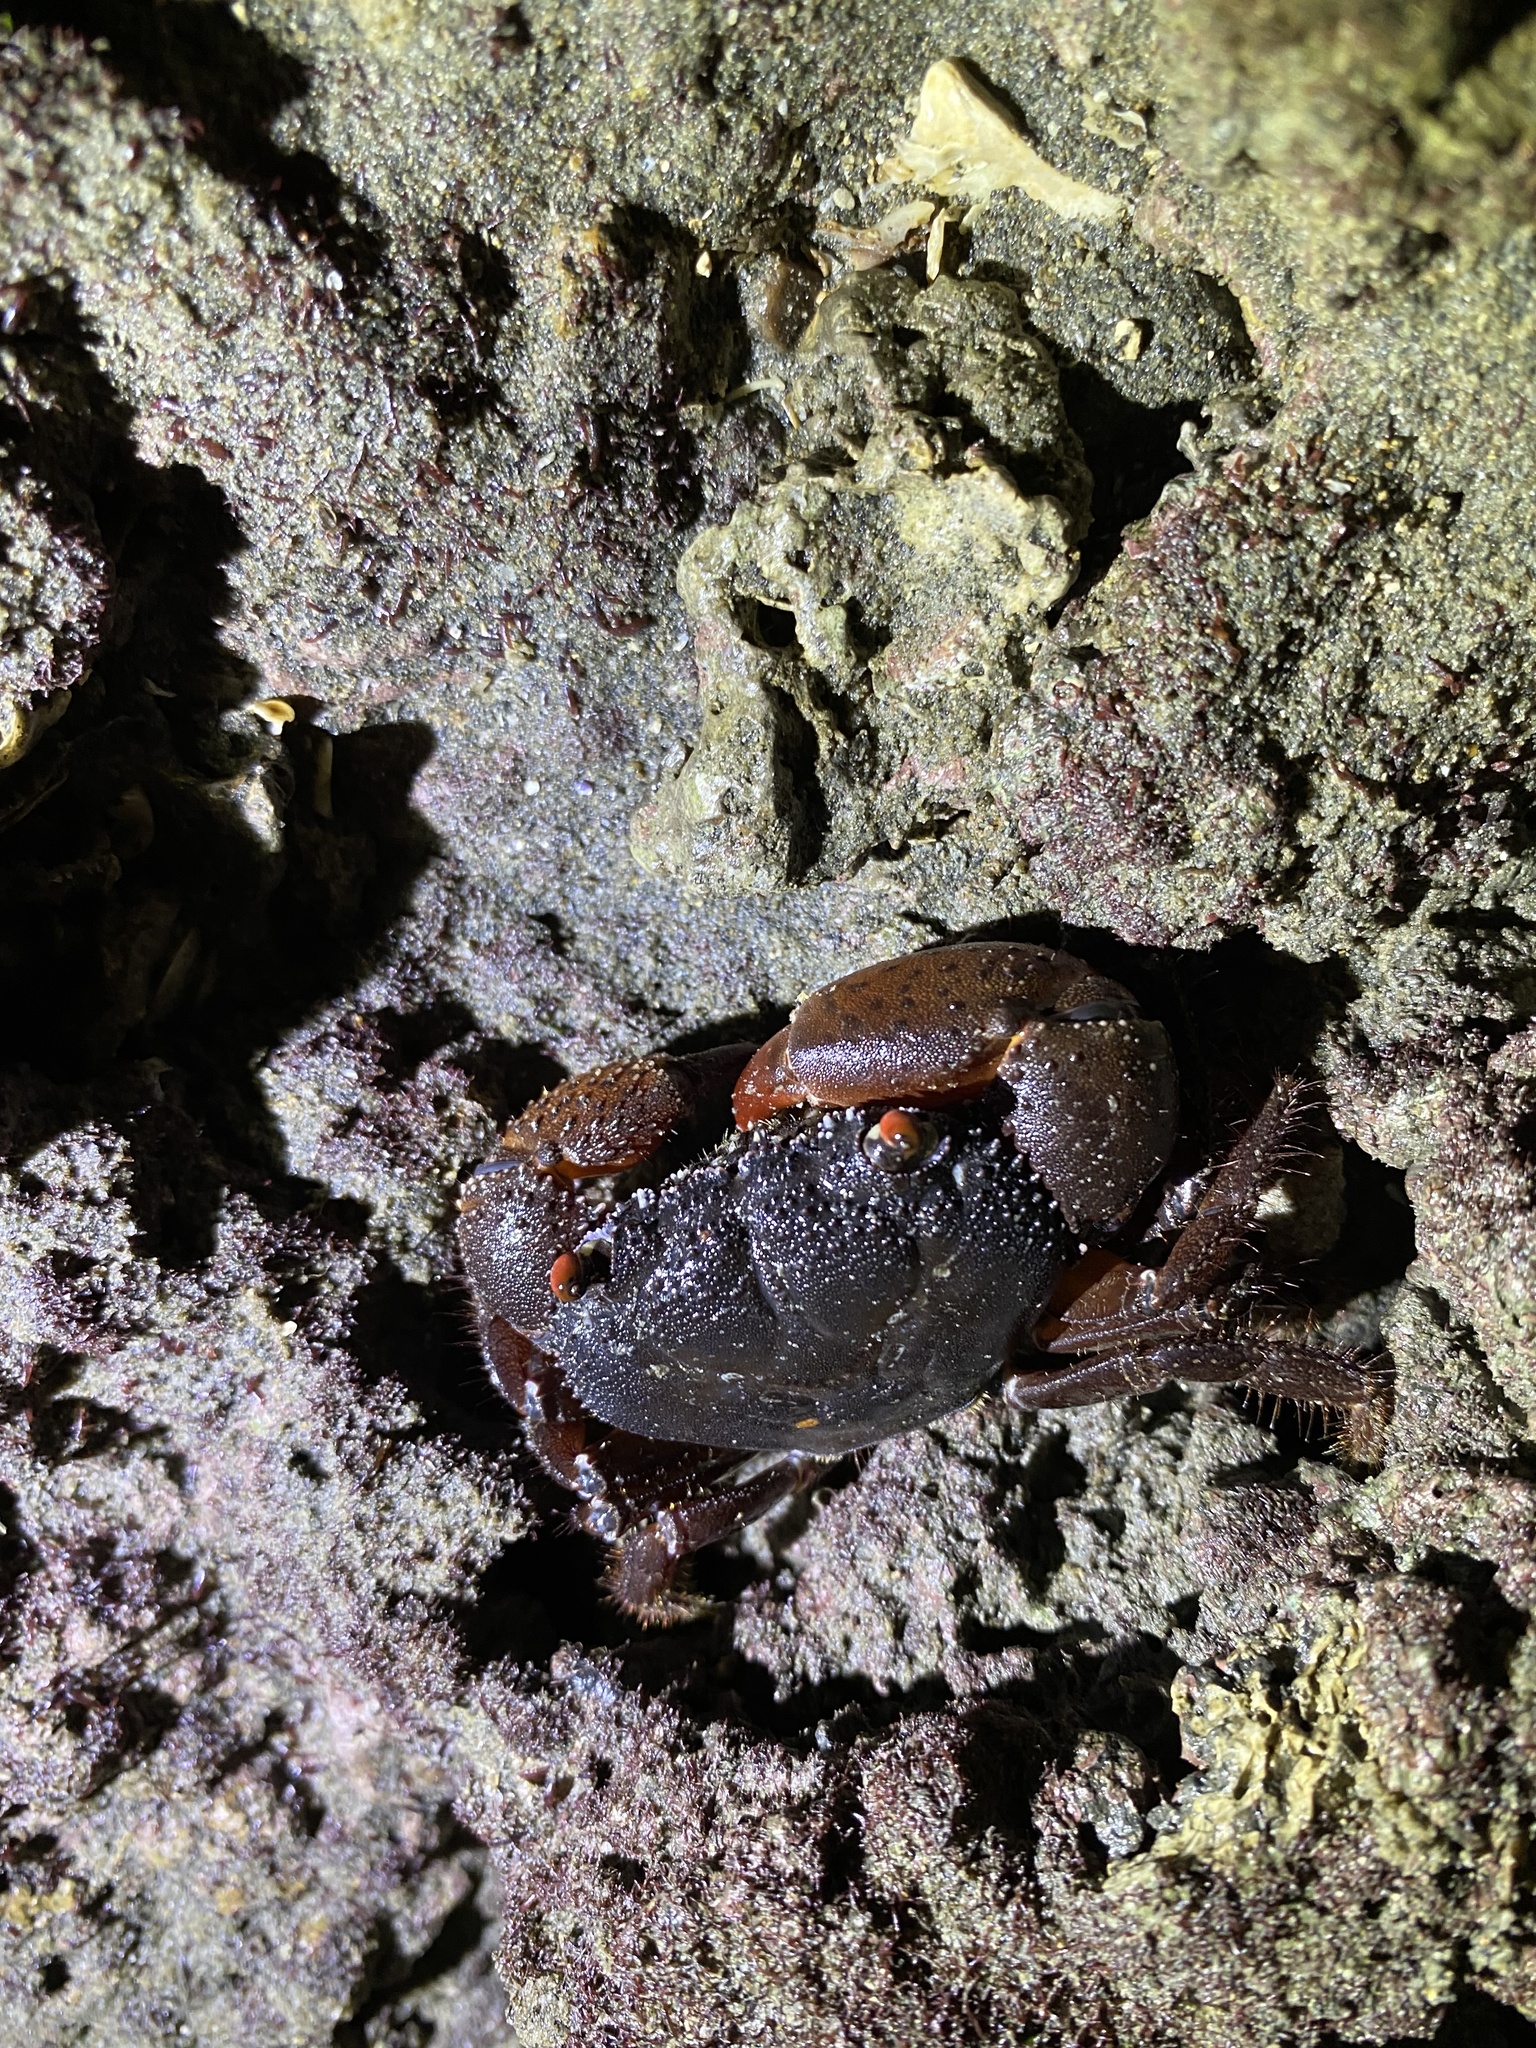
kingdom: Animalia
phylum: Arthropoda
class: Malacostraca
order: Decapoda
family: Eriphiidae
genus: Eriphia
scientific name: Eriphia ferox
